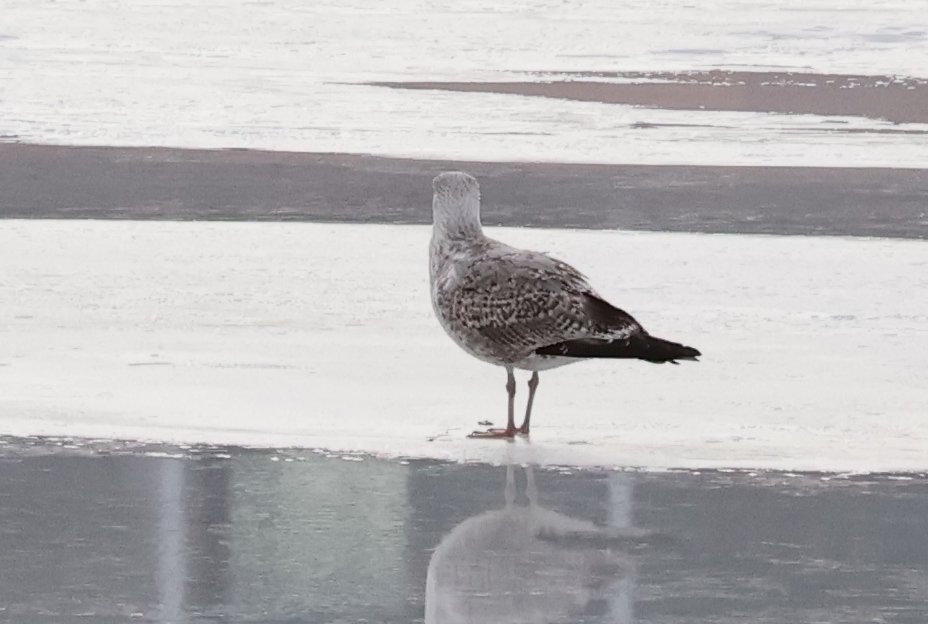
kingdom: Animalia
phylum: Chordata
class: Aves
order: Charadriiformes
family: Laridae
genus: Larus
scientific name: Larus argentatus
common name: Herring gull
